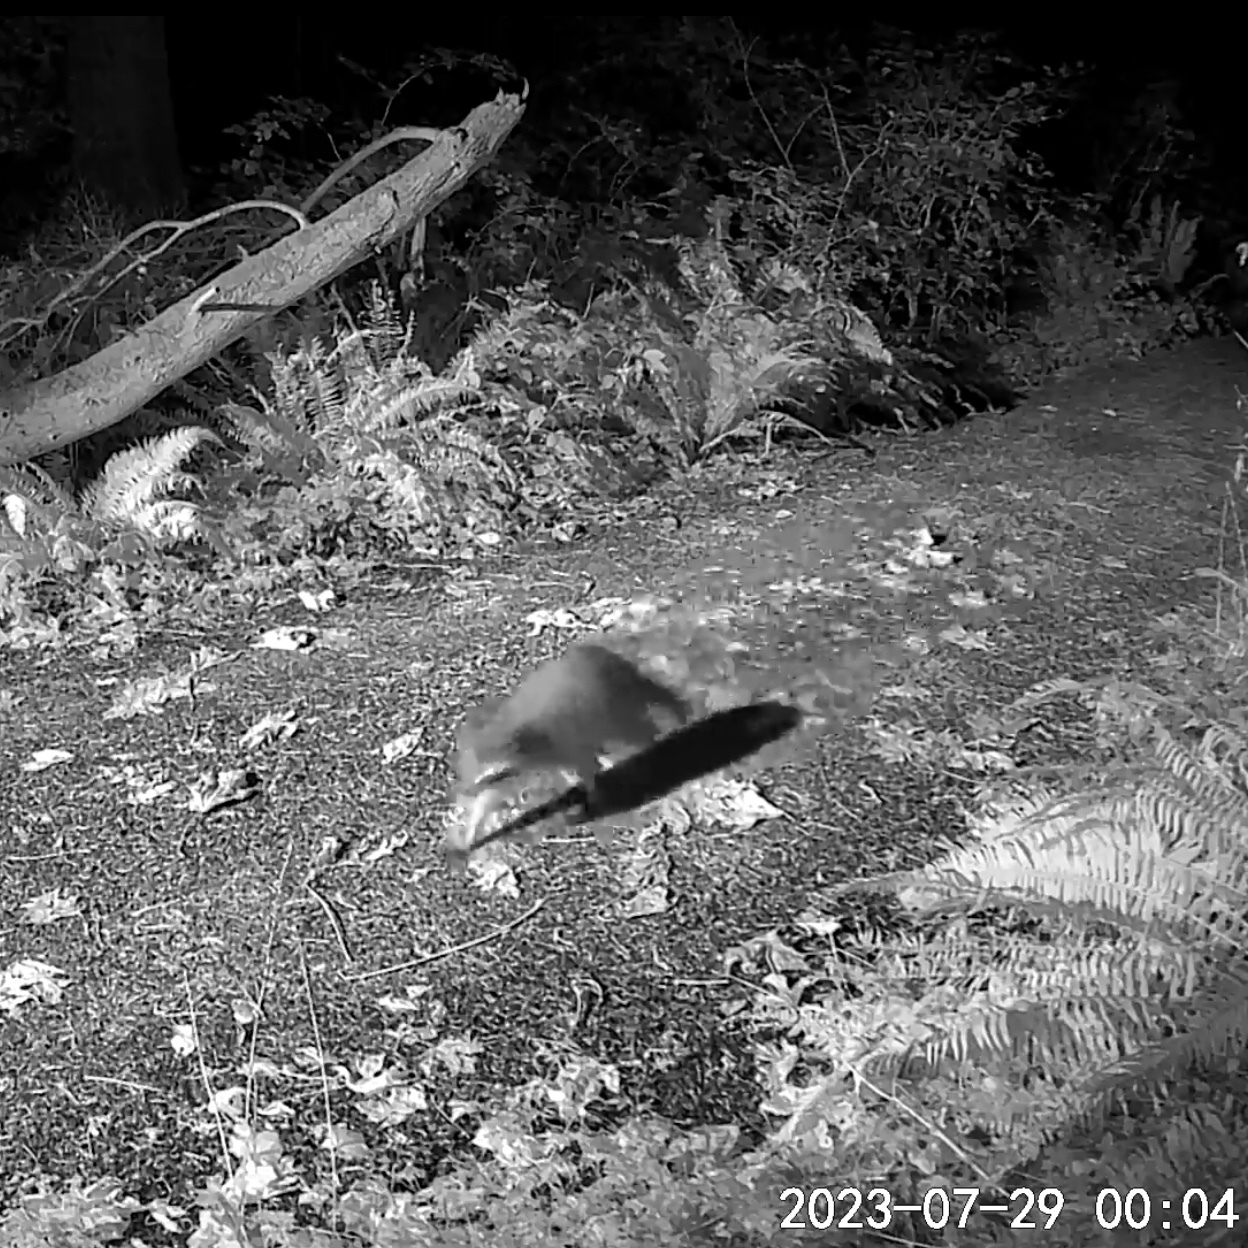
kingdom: Animalia
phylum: Chordata
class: Mammalia
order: Carnivora
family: Procyonidae
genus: Procyon
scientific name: Procyon lotor
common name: Raccoon
